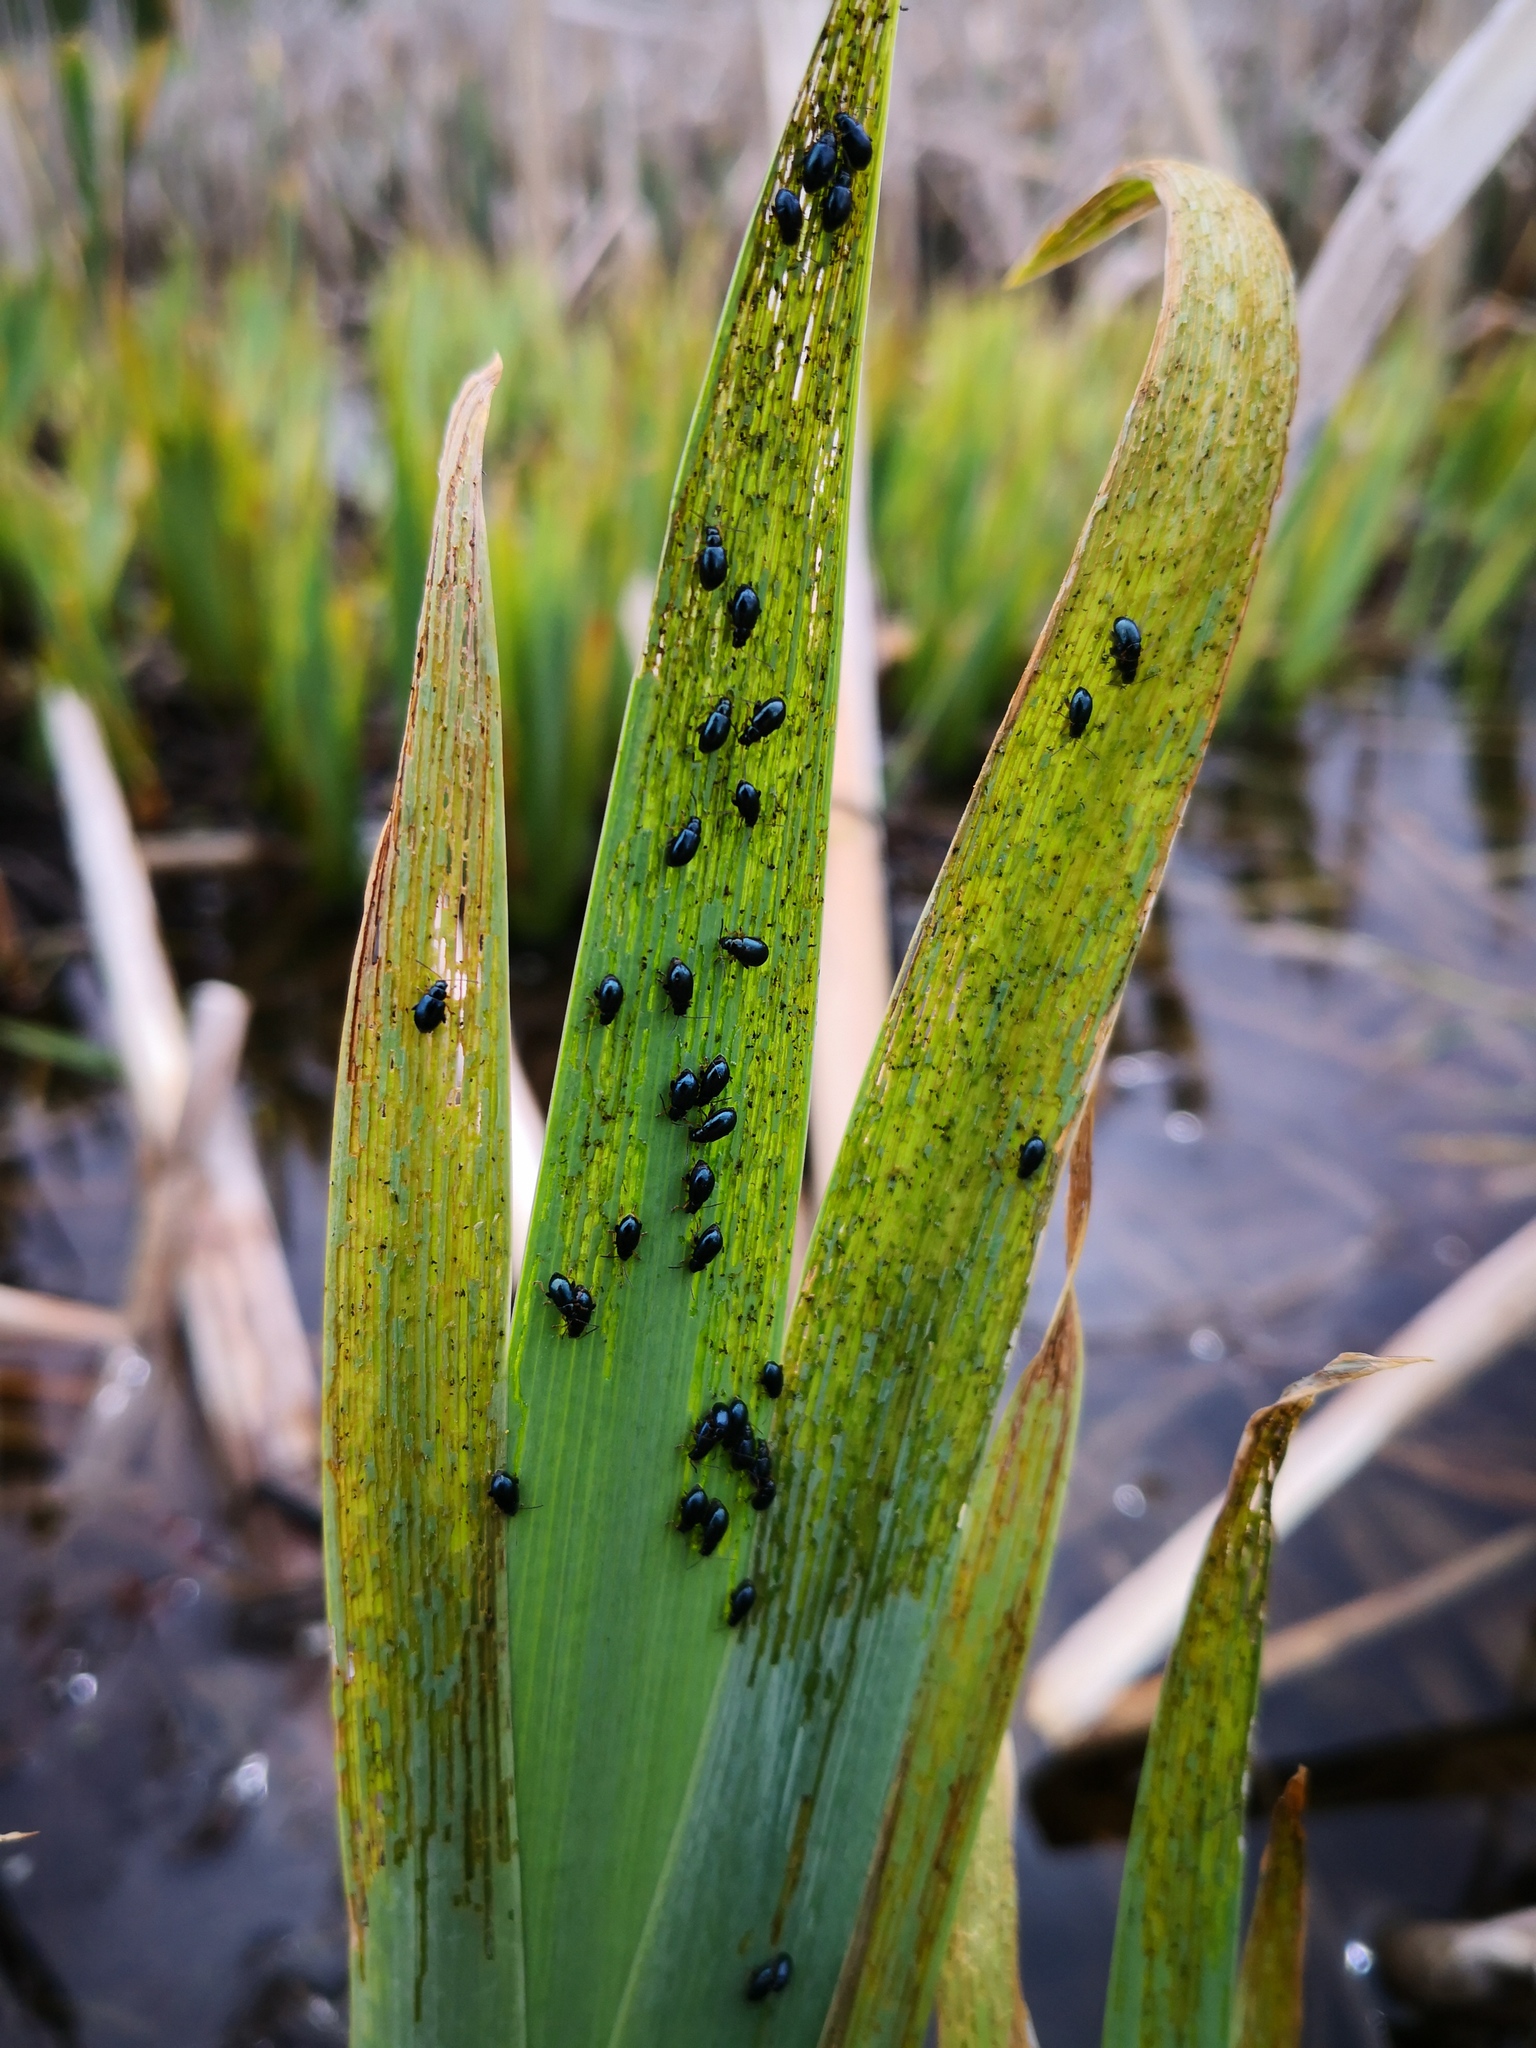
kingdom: Animalia
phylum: Arthropoda
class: Insecta
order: Coleoptera
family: Chrysomelidae
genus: Aphthona
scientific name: Aphthona nonstriata
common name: Iris flea beetle
